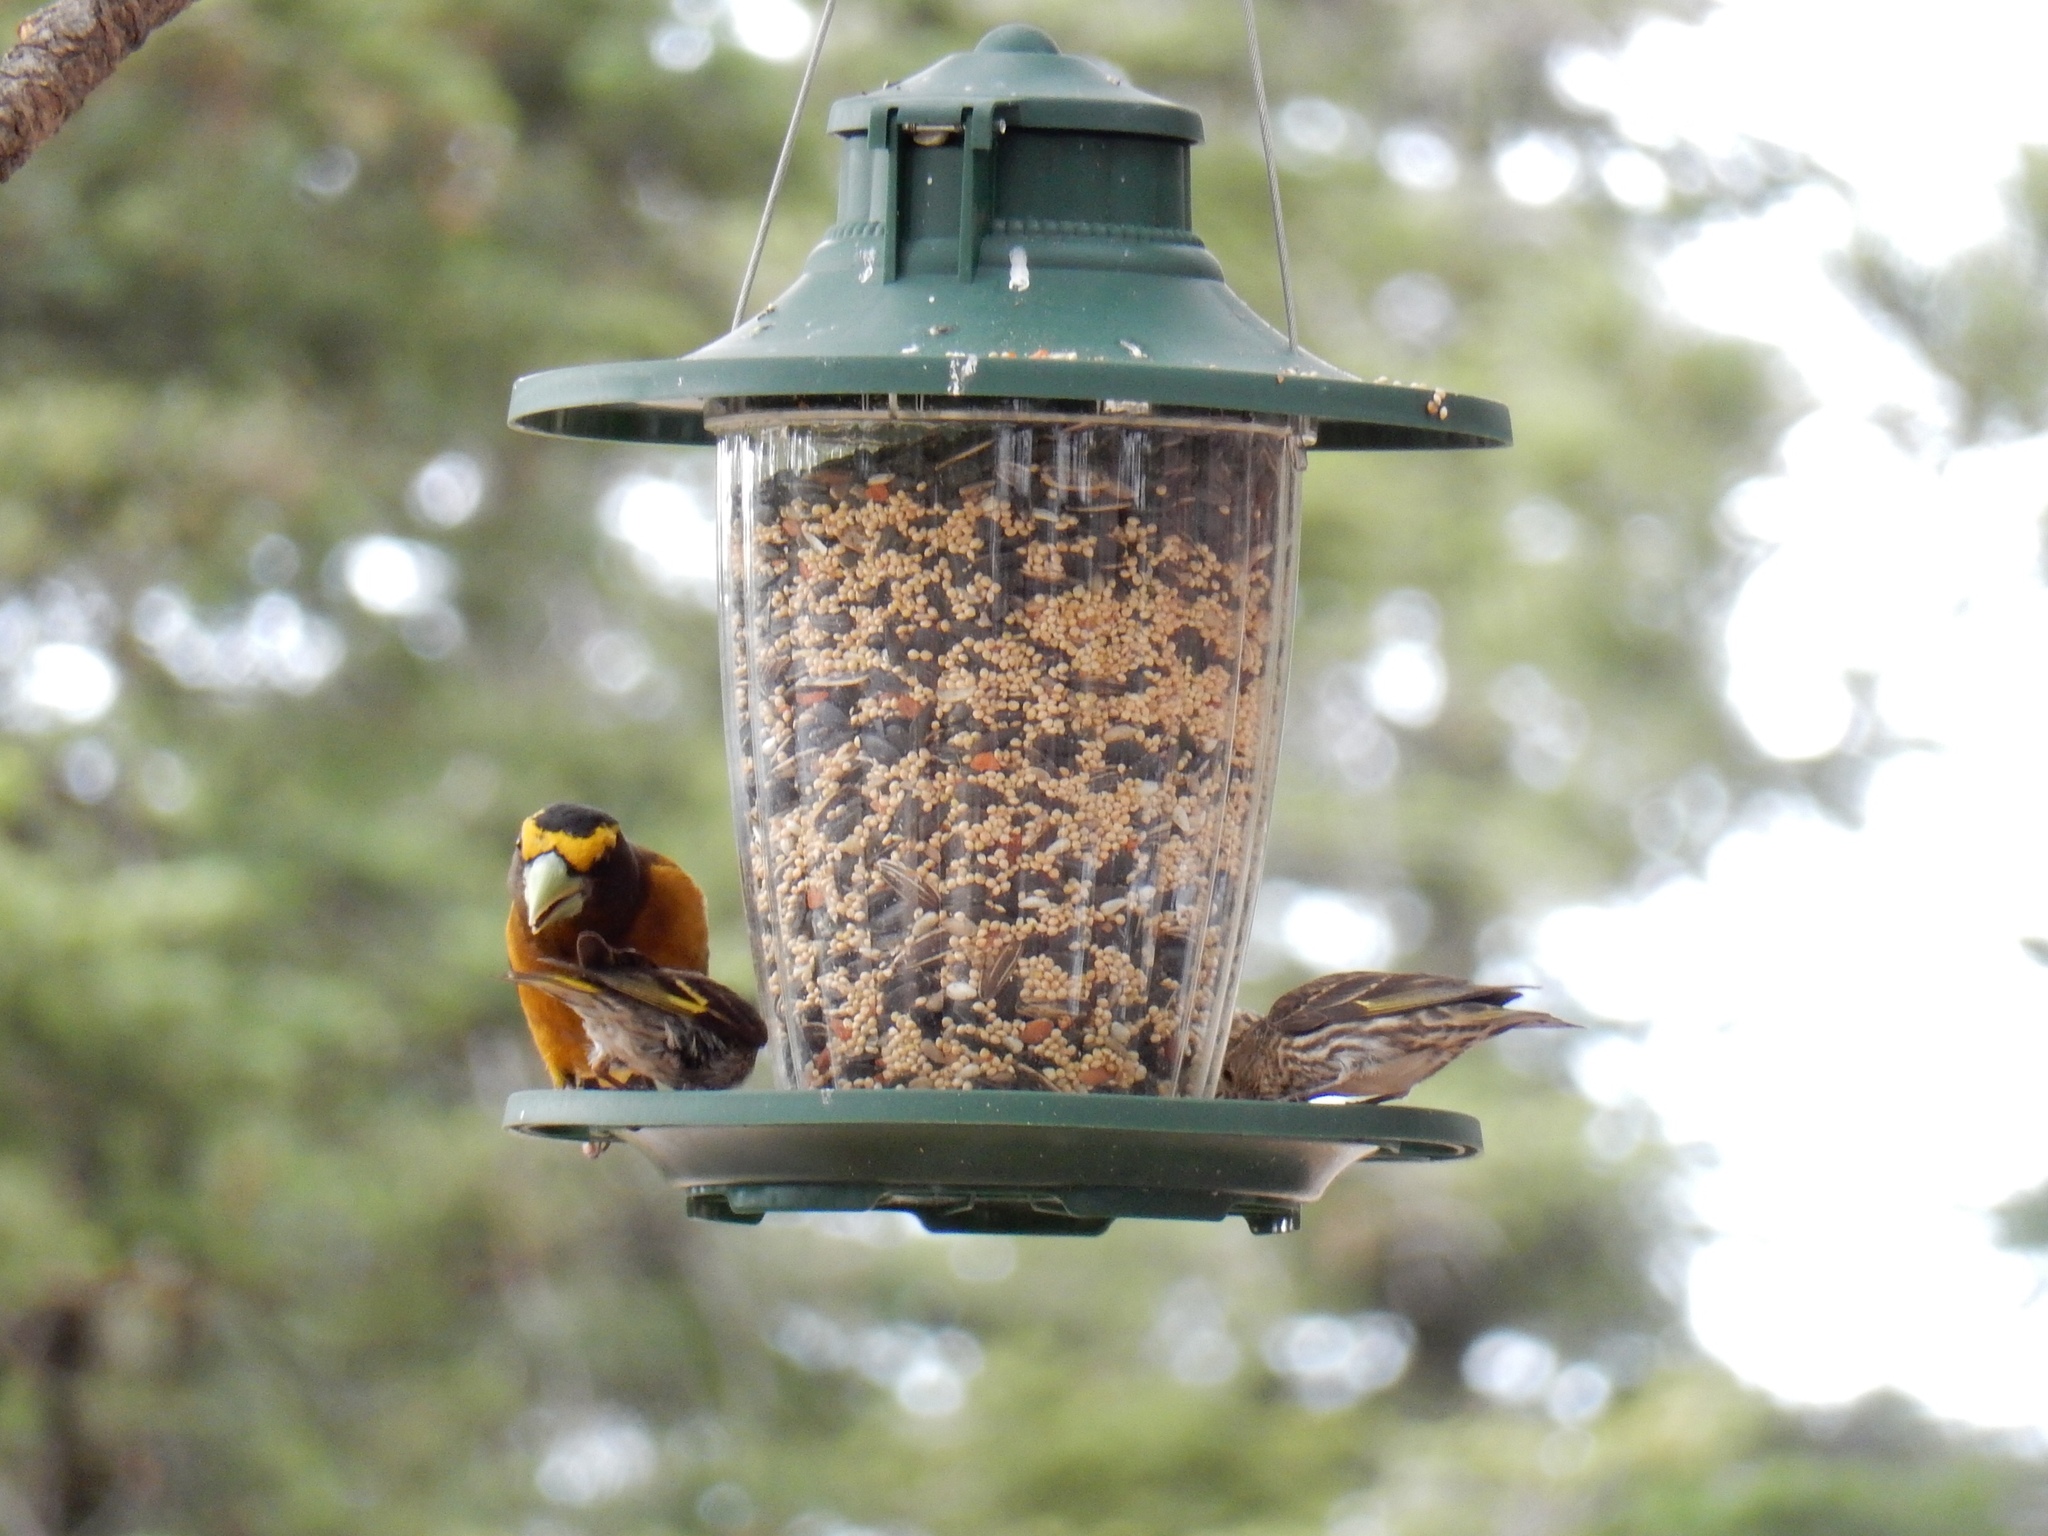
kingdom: Animalia
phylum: Chordata
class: Aves
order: Passeriformes
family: Fringillidae
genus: Spinus
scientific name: Spinus pinus
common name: Pine siskin
